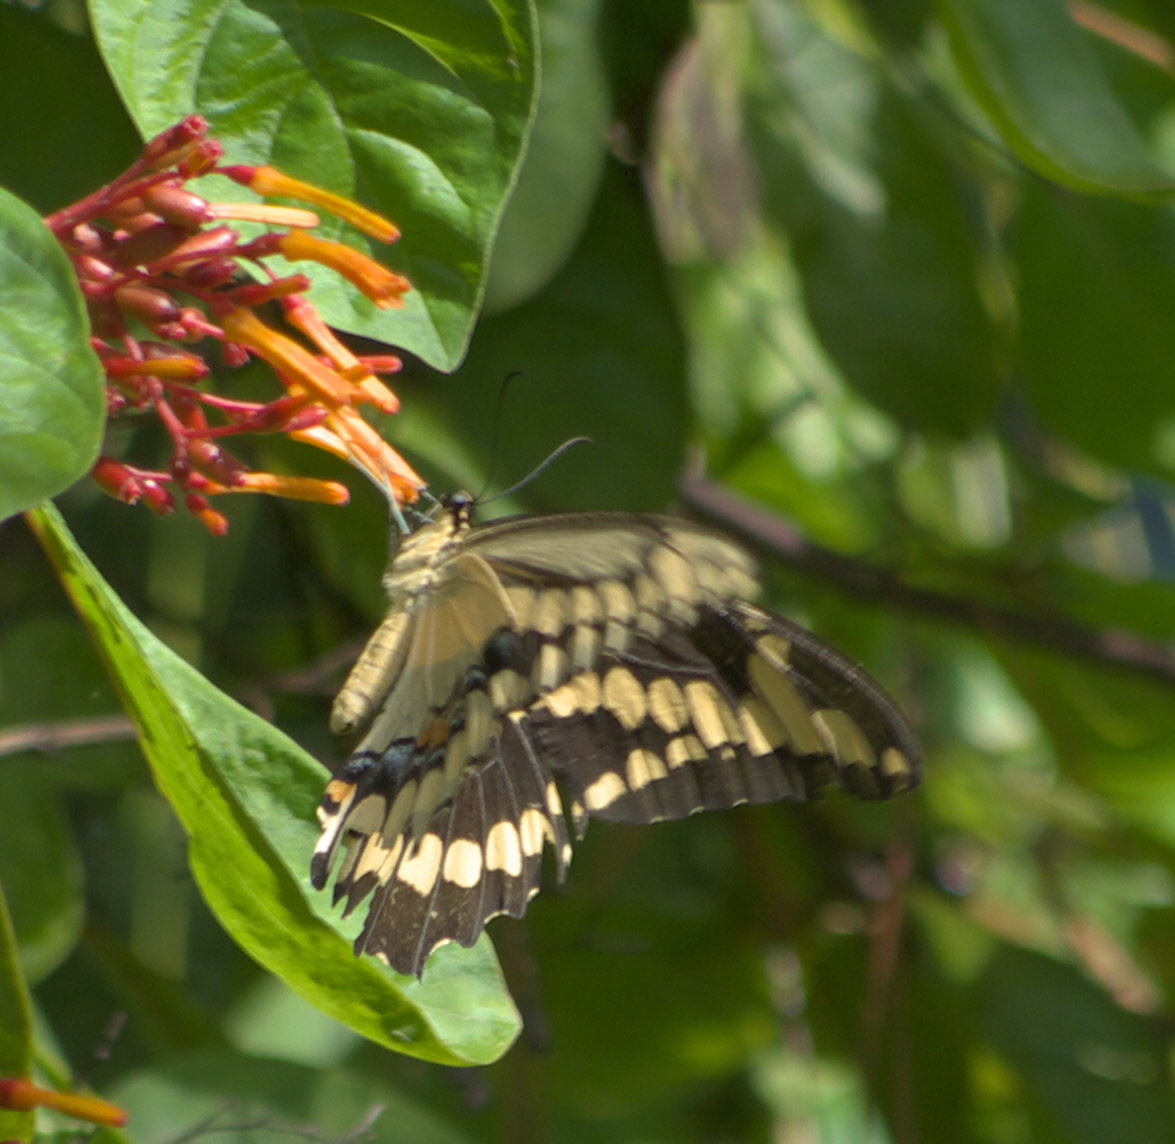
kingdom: Animalia
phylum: Arthropoda
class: Insecta
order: Lepidoptera
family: Papilionidae
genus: Papilio
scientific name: Papilio cresphontes
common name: Giant swallowtail
